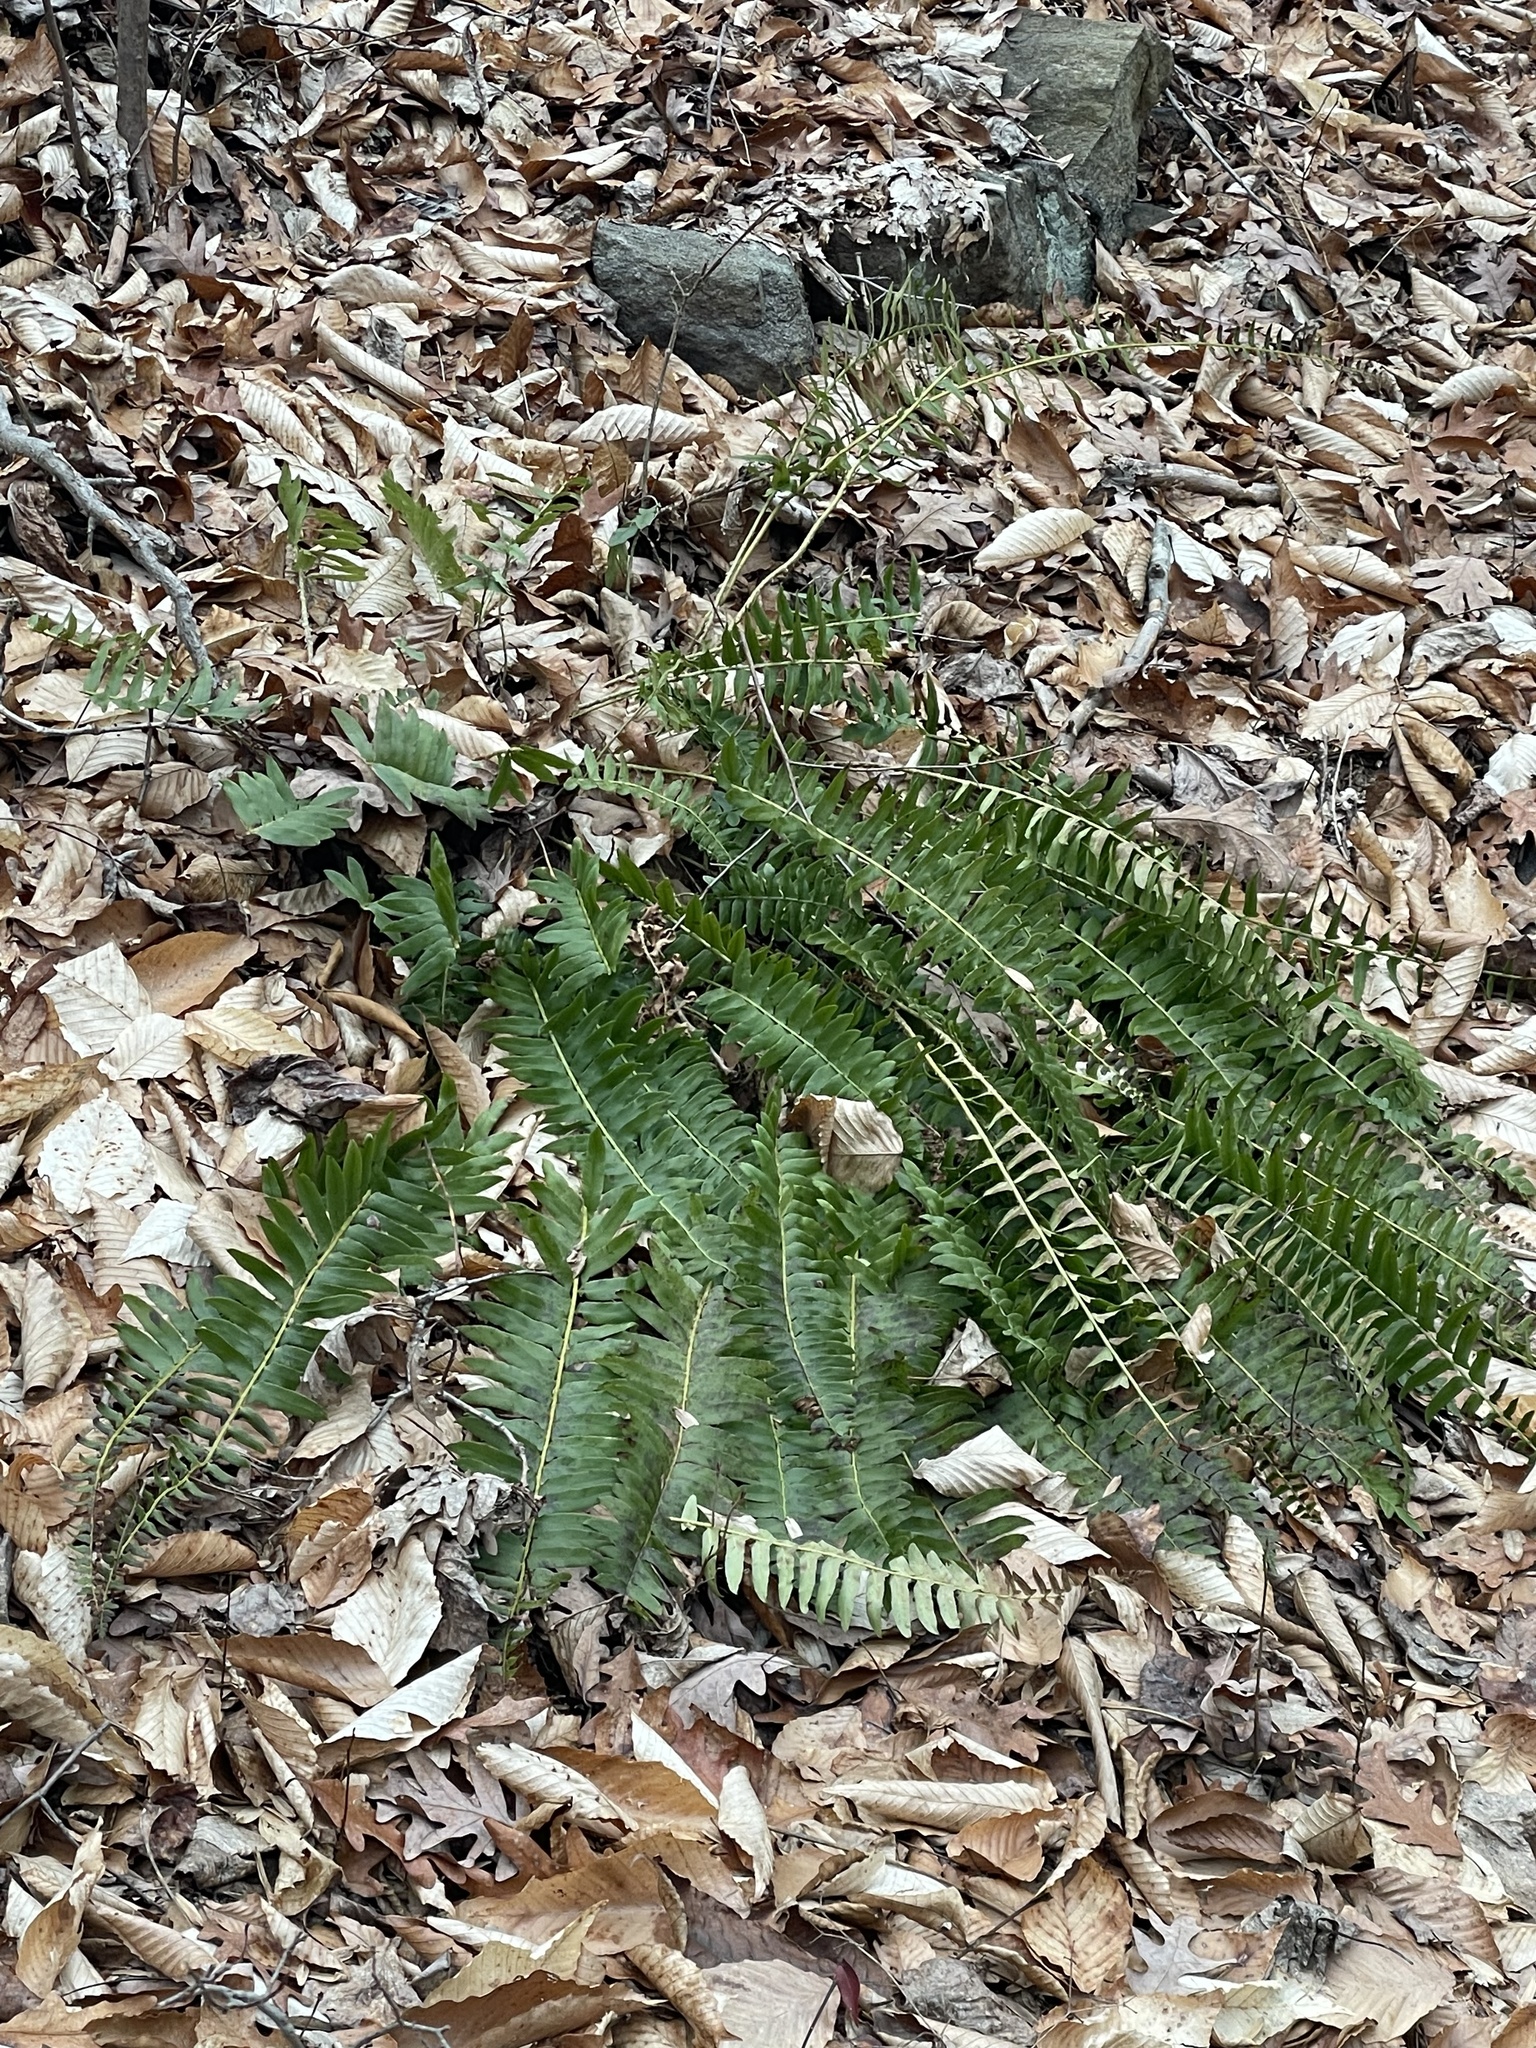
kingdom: Plantae
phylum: Tracheophyta
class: Polypodiopsida
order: Polypodiales
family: Dryopteridaceae
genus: Polystichum
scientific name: Polystichum acrostichoides
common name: Christmas fern
